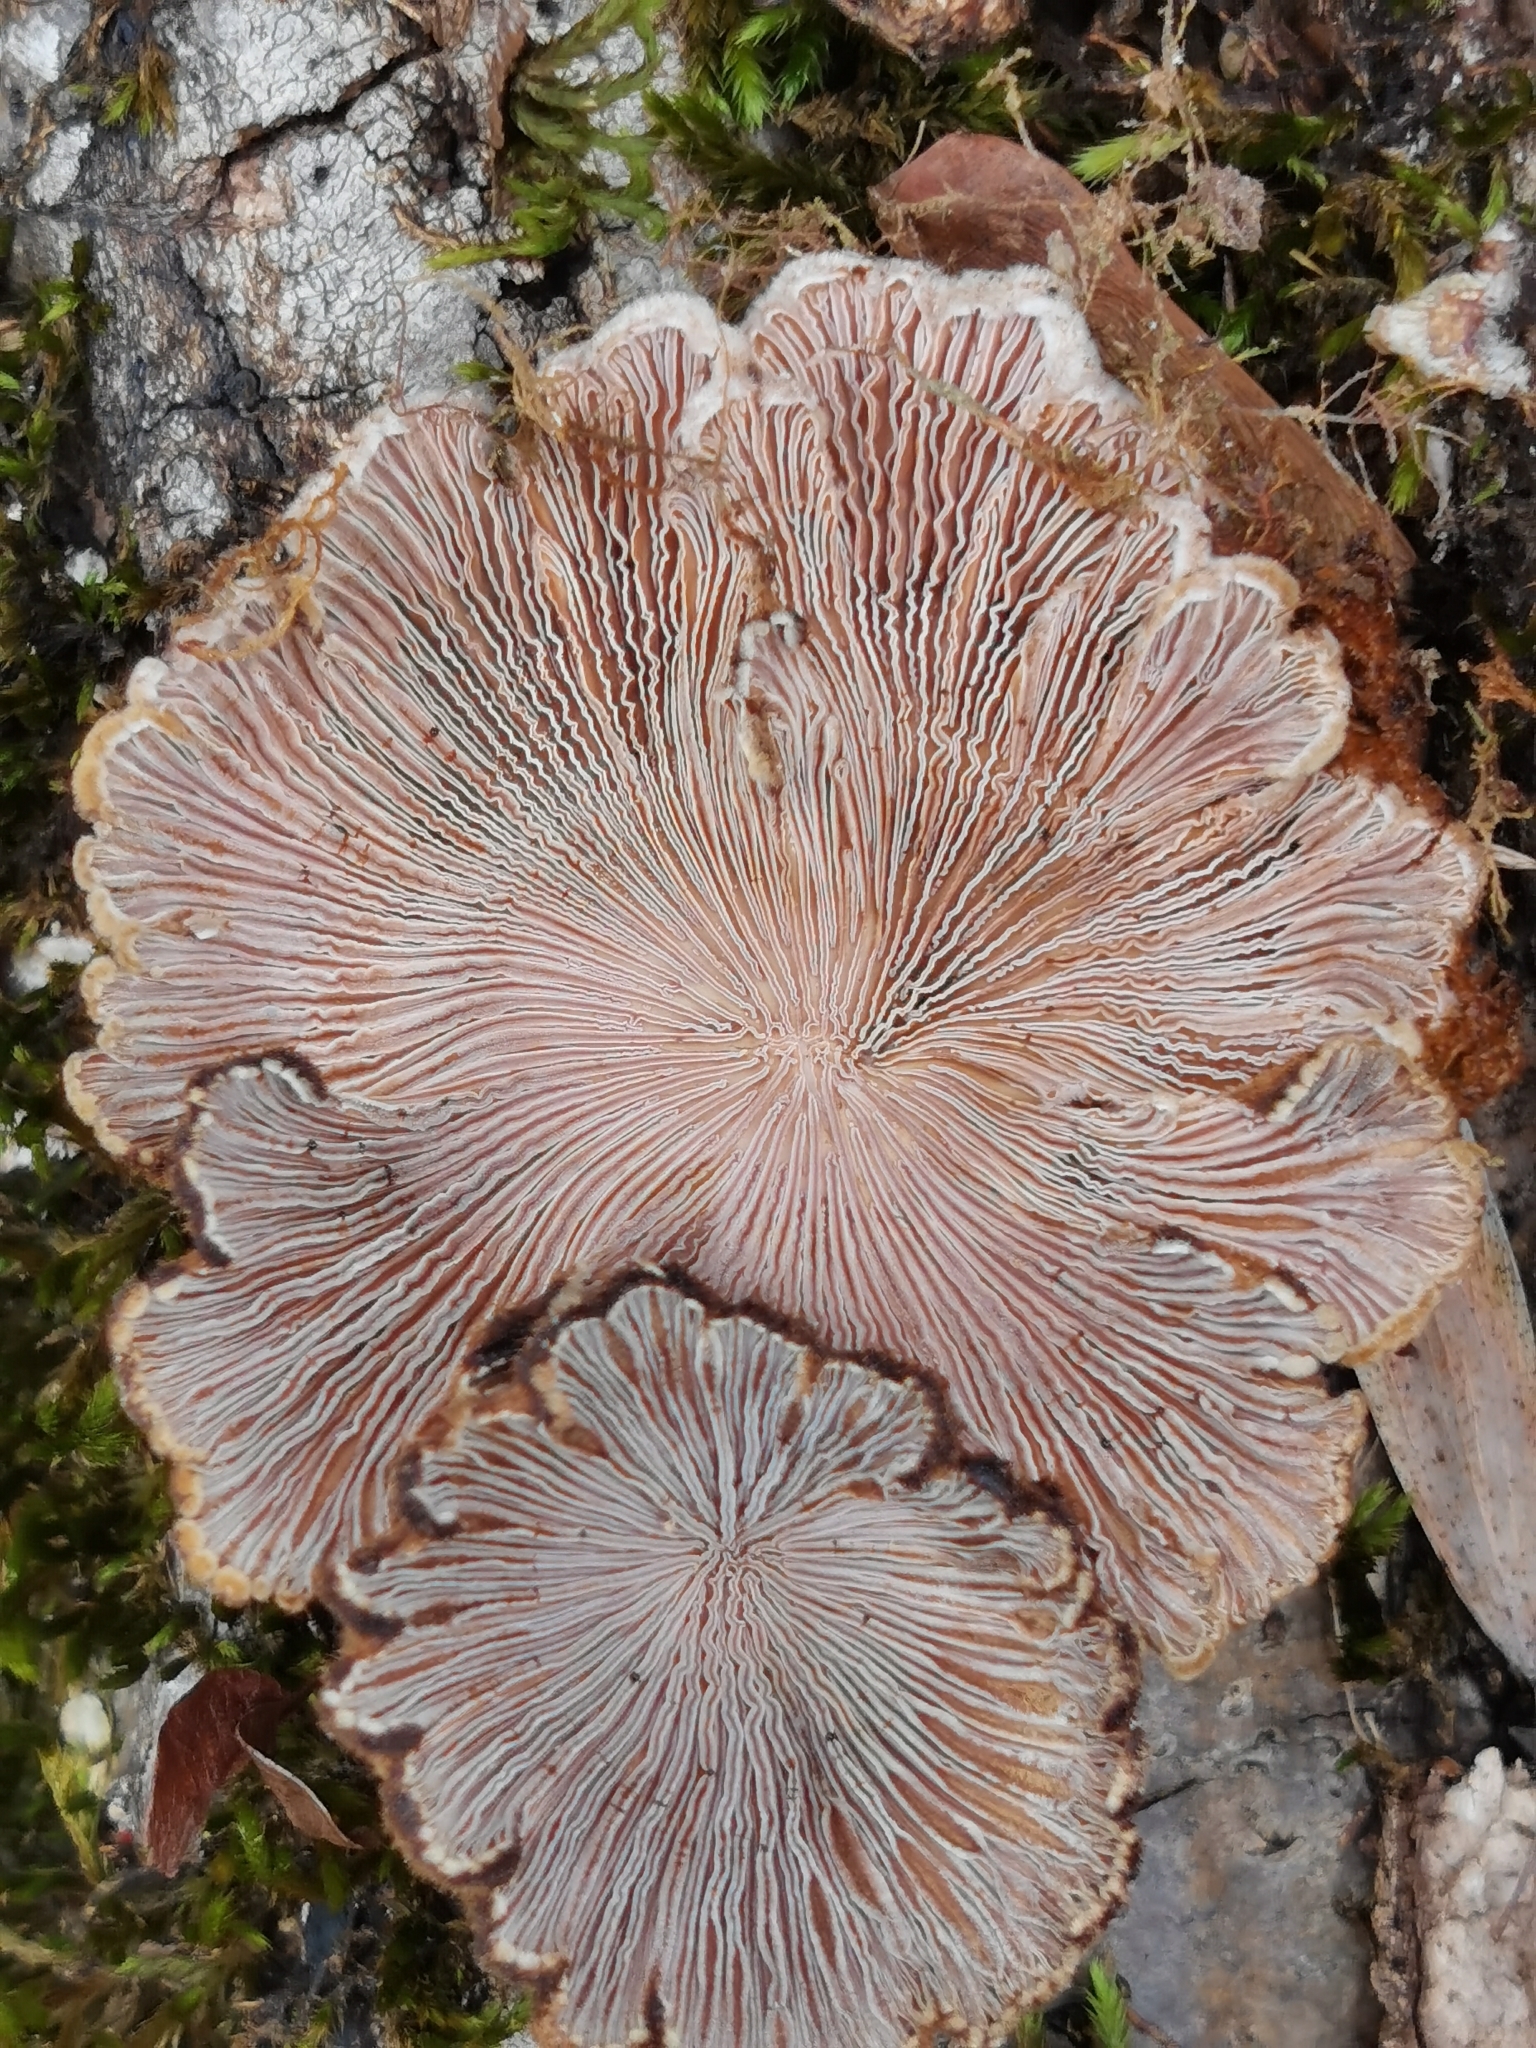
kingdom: Fungi
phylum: Basidiomycota
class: Agaricomycetes
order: Agaricales
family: Schizophyllaceae
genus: Schizophyllum
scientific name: Schizophyllum commune
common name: Common porecrust
